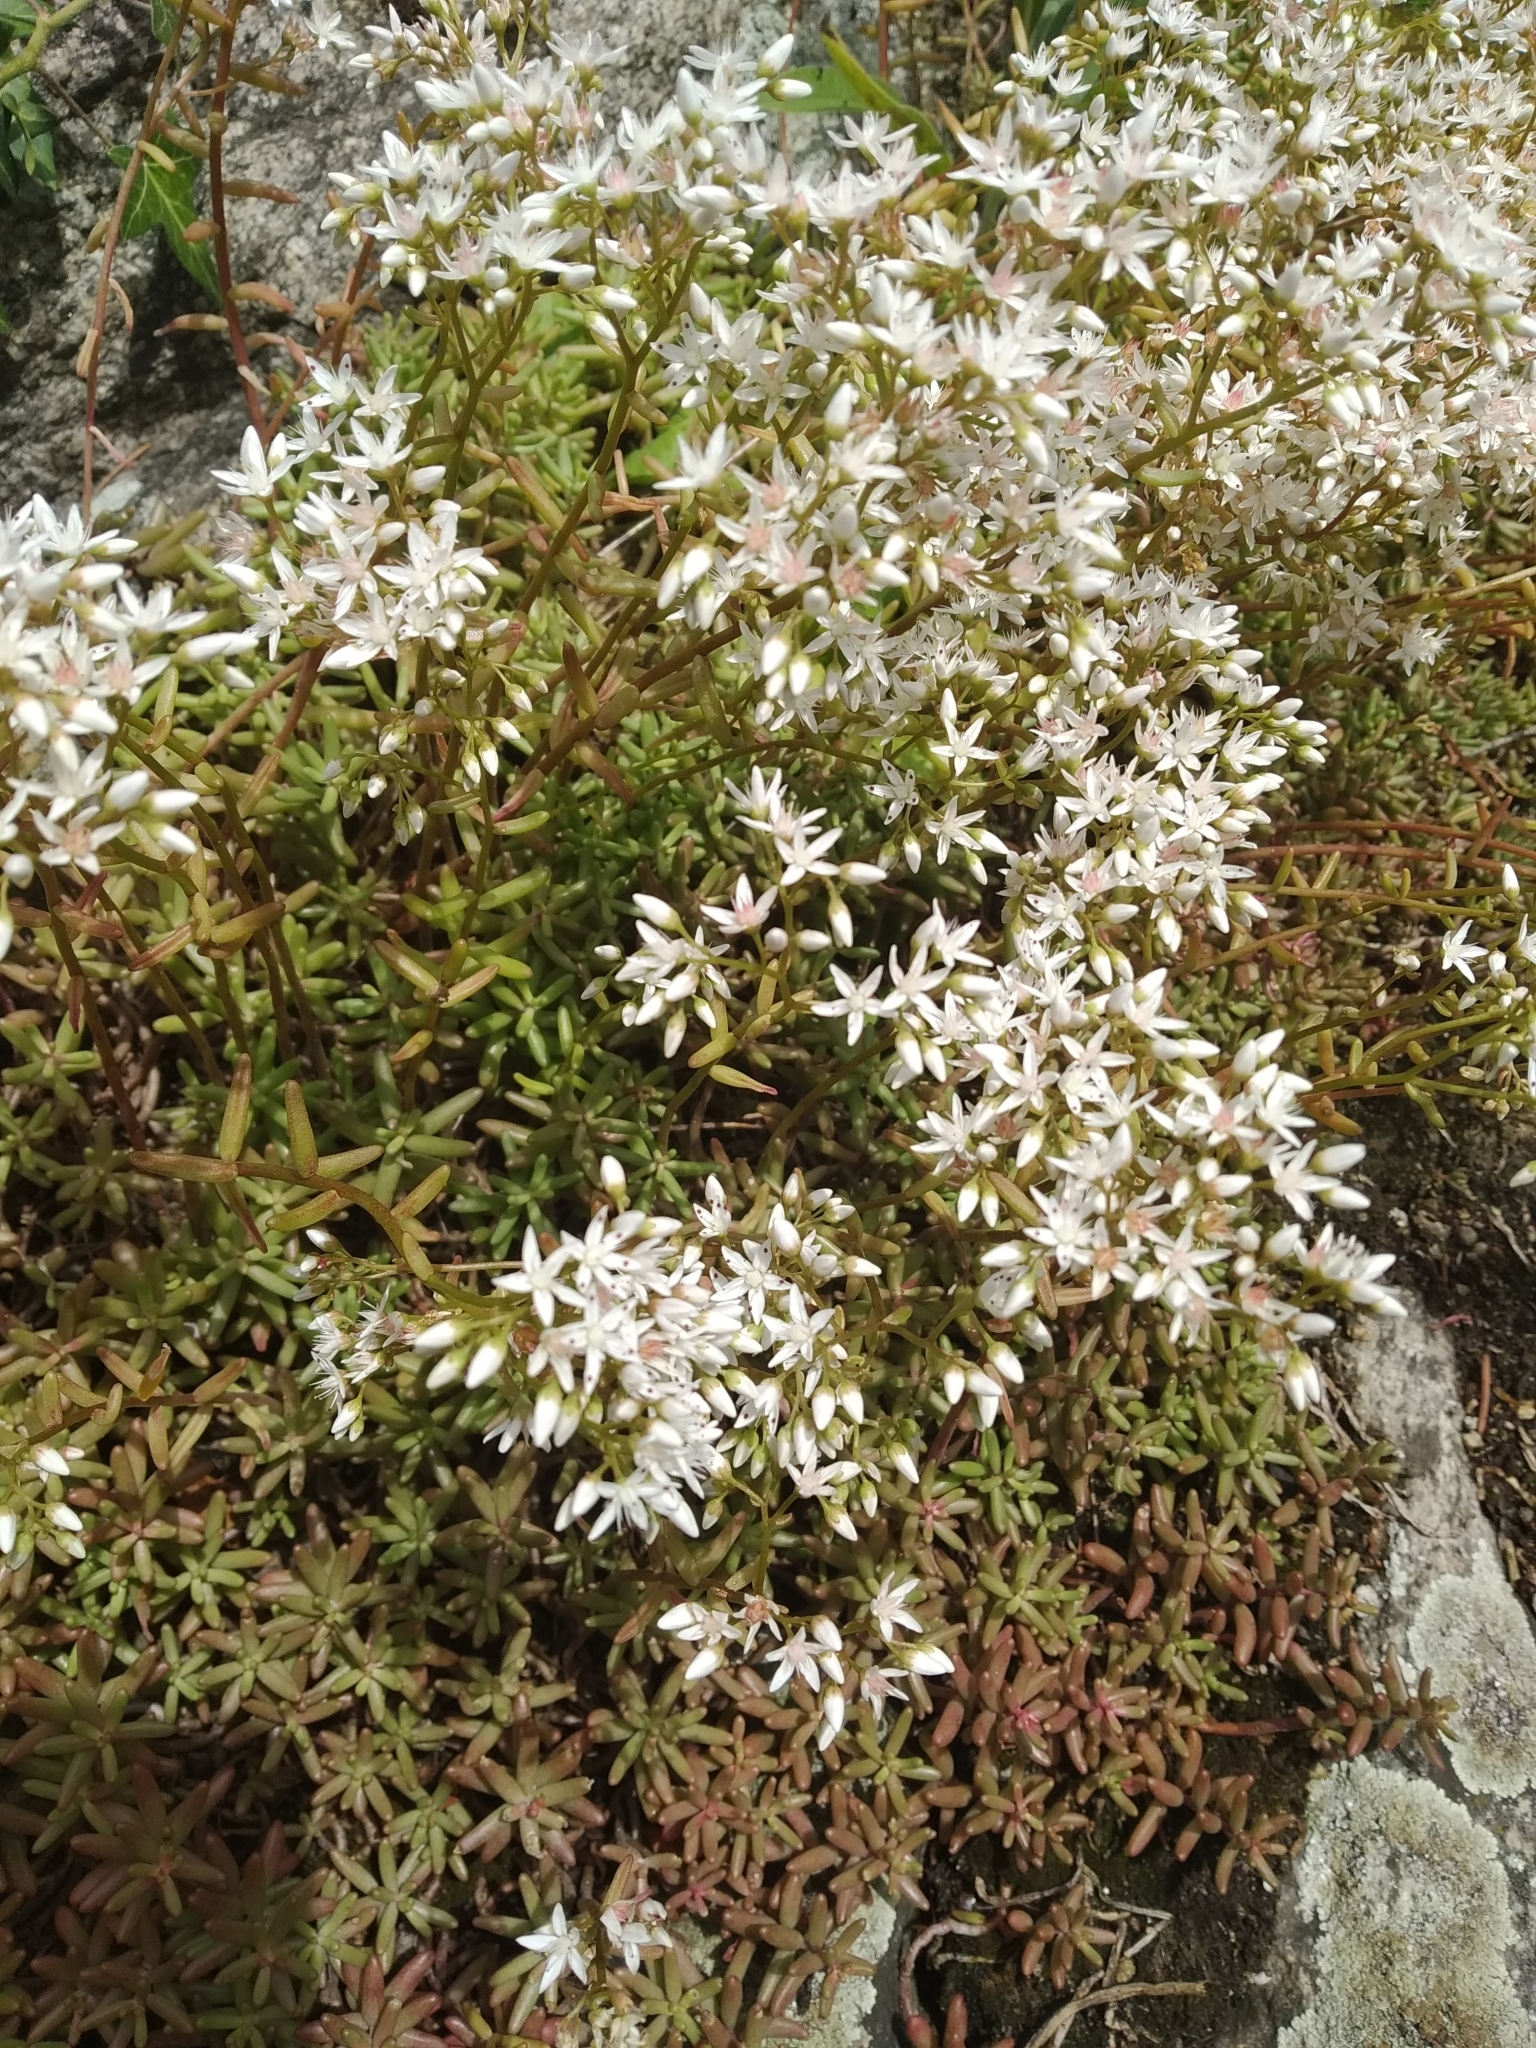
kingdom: Plantae
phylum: Tracheophyta
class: Magnoliopsida
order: Saxifragales
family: Crassulaceae
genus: Sedum
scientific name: Sedum album
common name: White stonecrop
